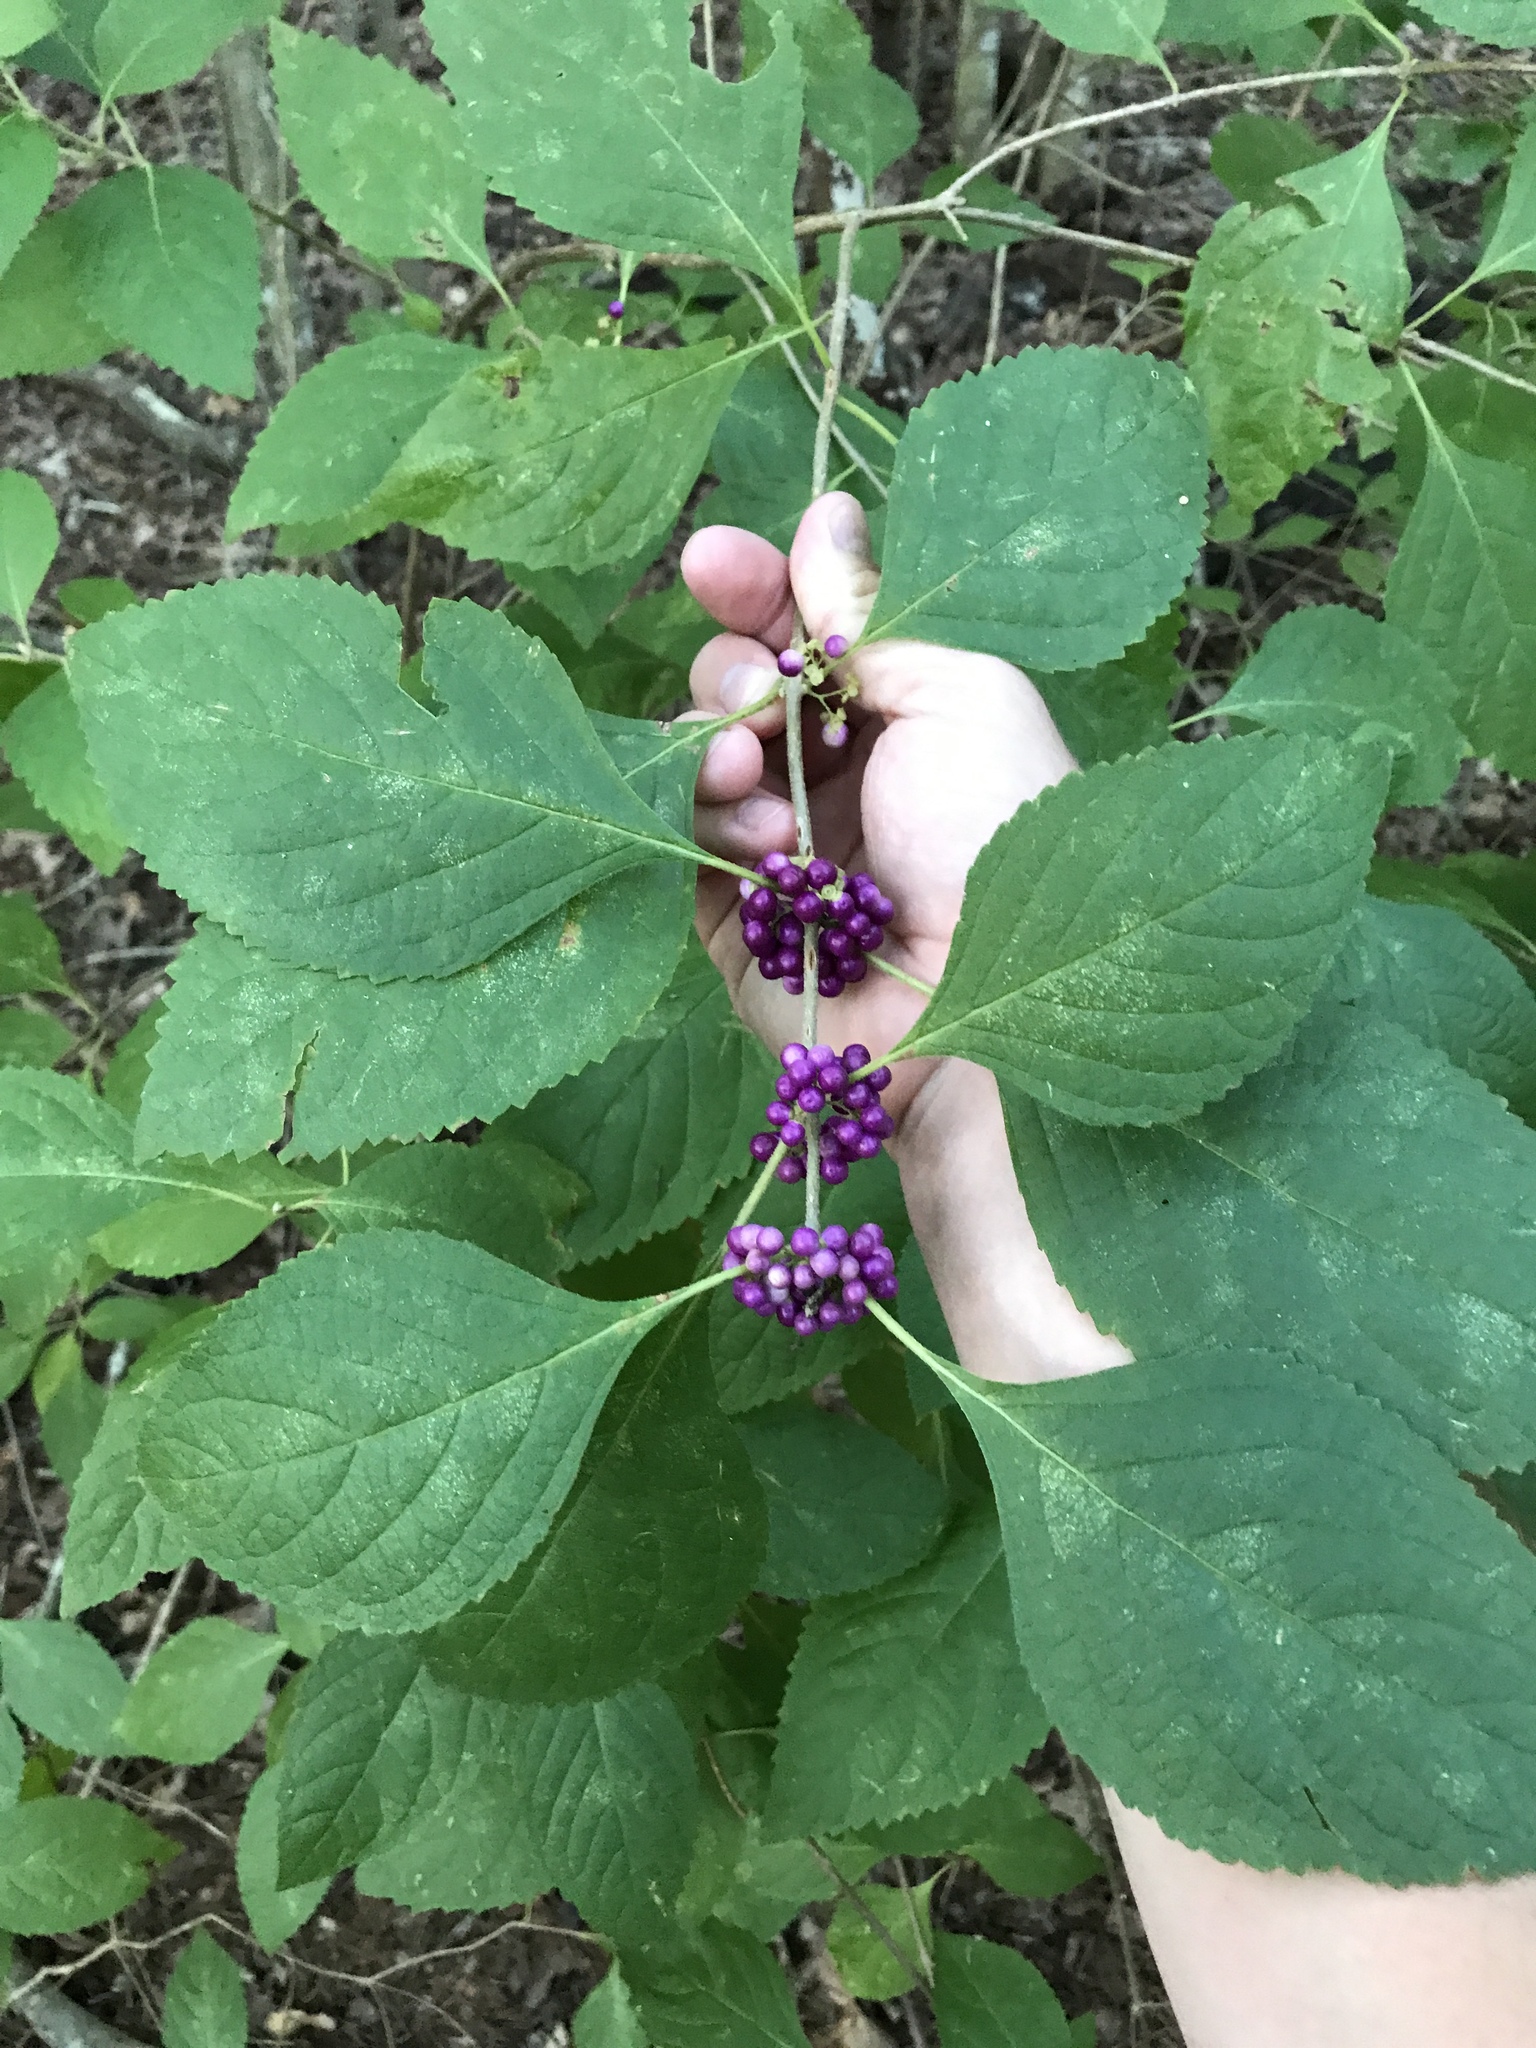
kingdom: Plantae
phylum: Tracheophyta
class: Magnoliopsida
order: Lamiales
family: Lamiaceae
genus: Callicarpa
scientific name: Callicarpa americana
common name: American beautyberry
